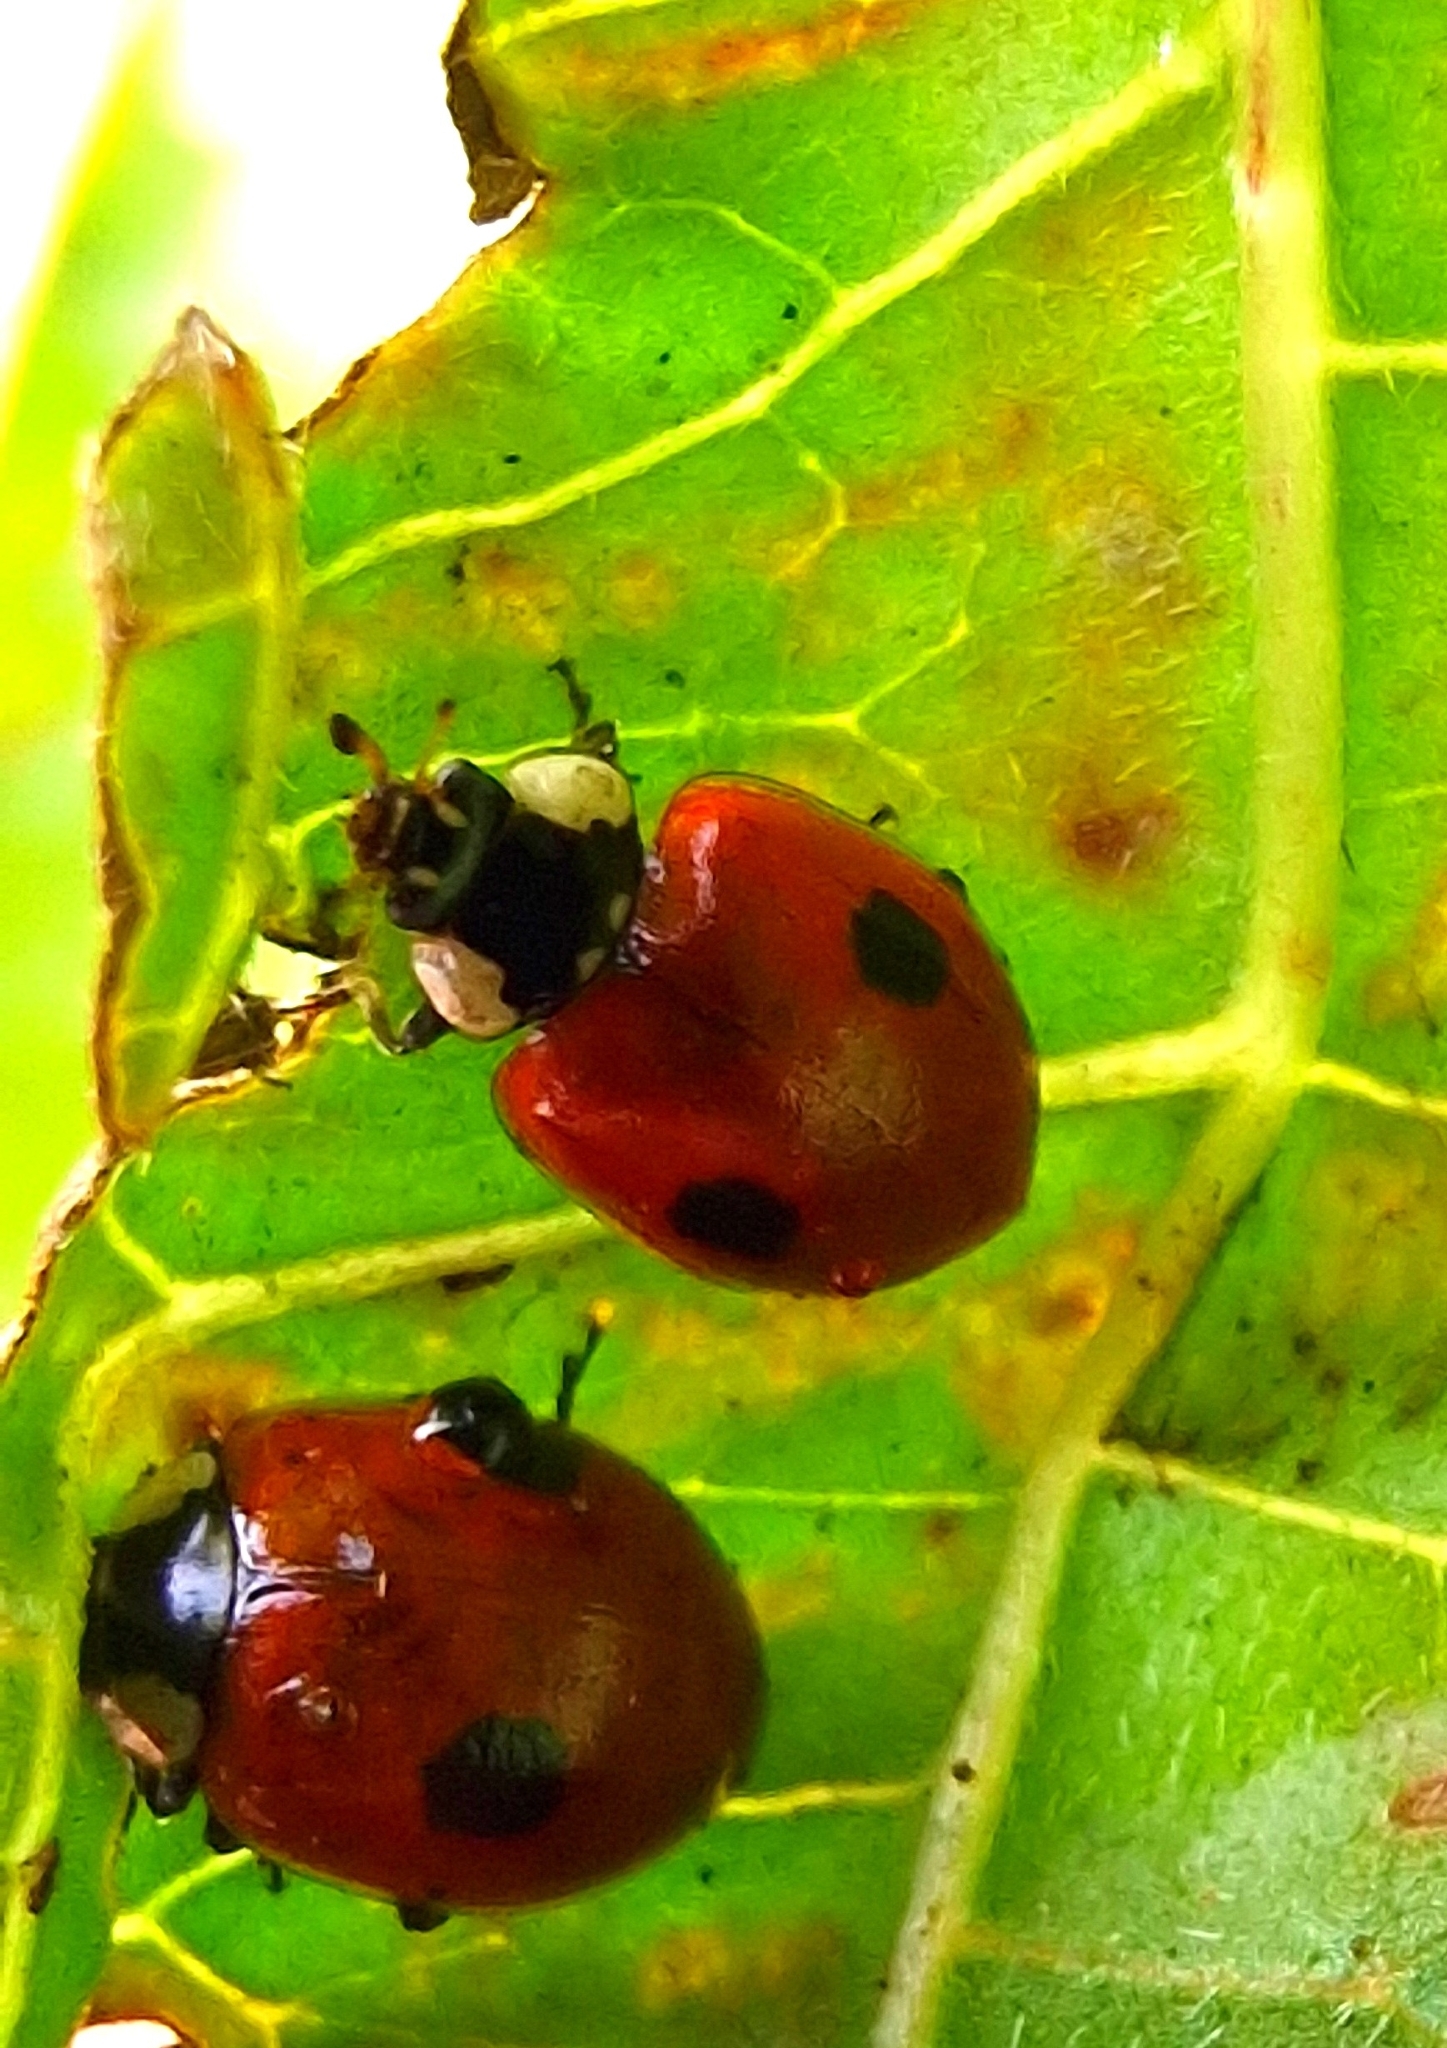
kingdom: Animalia
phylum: Arthropoda
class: Insecta
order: Coleoptera
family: Coccinellidae
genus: Adalia
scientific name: Adalia bipunctata
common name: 2-spot ladybird
